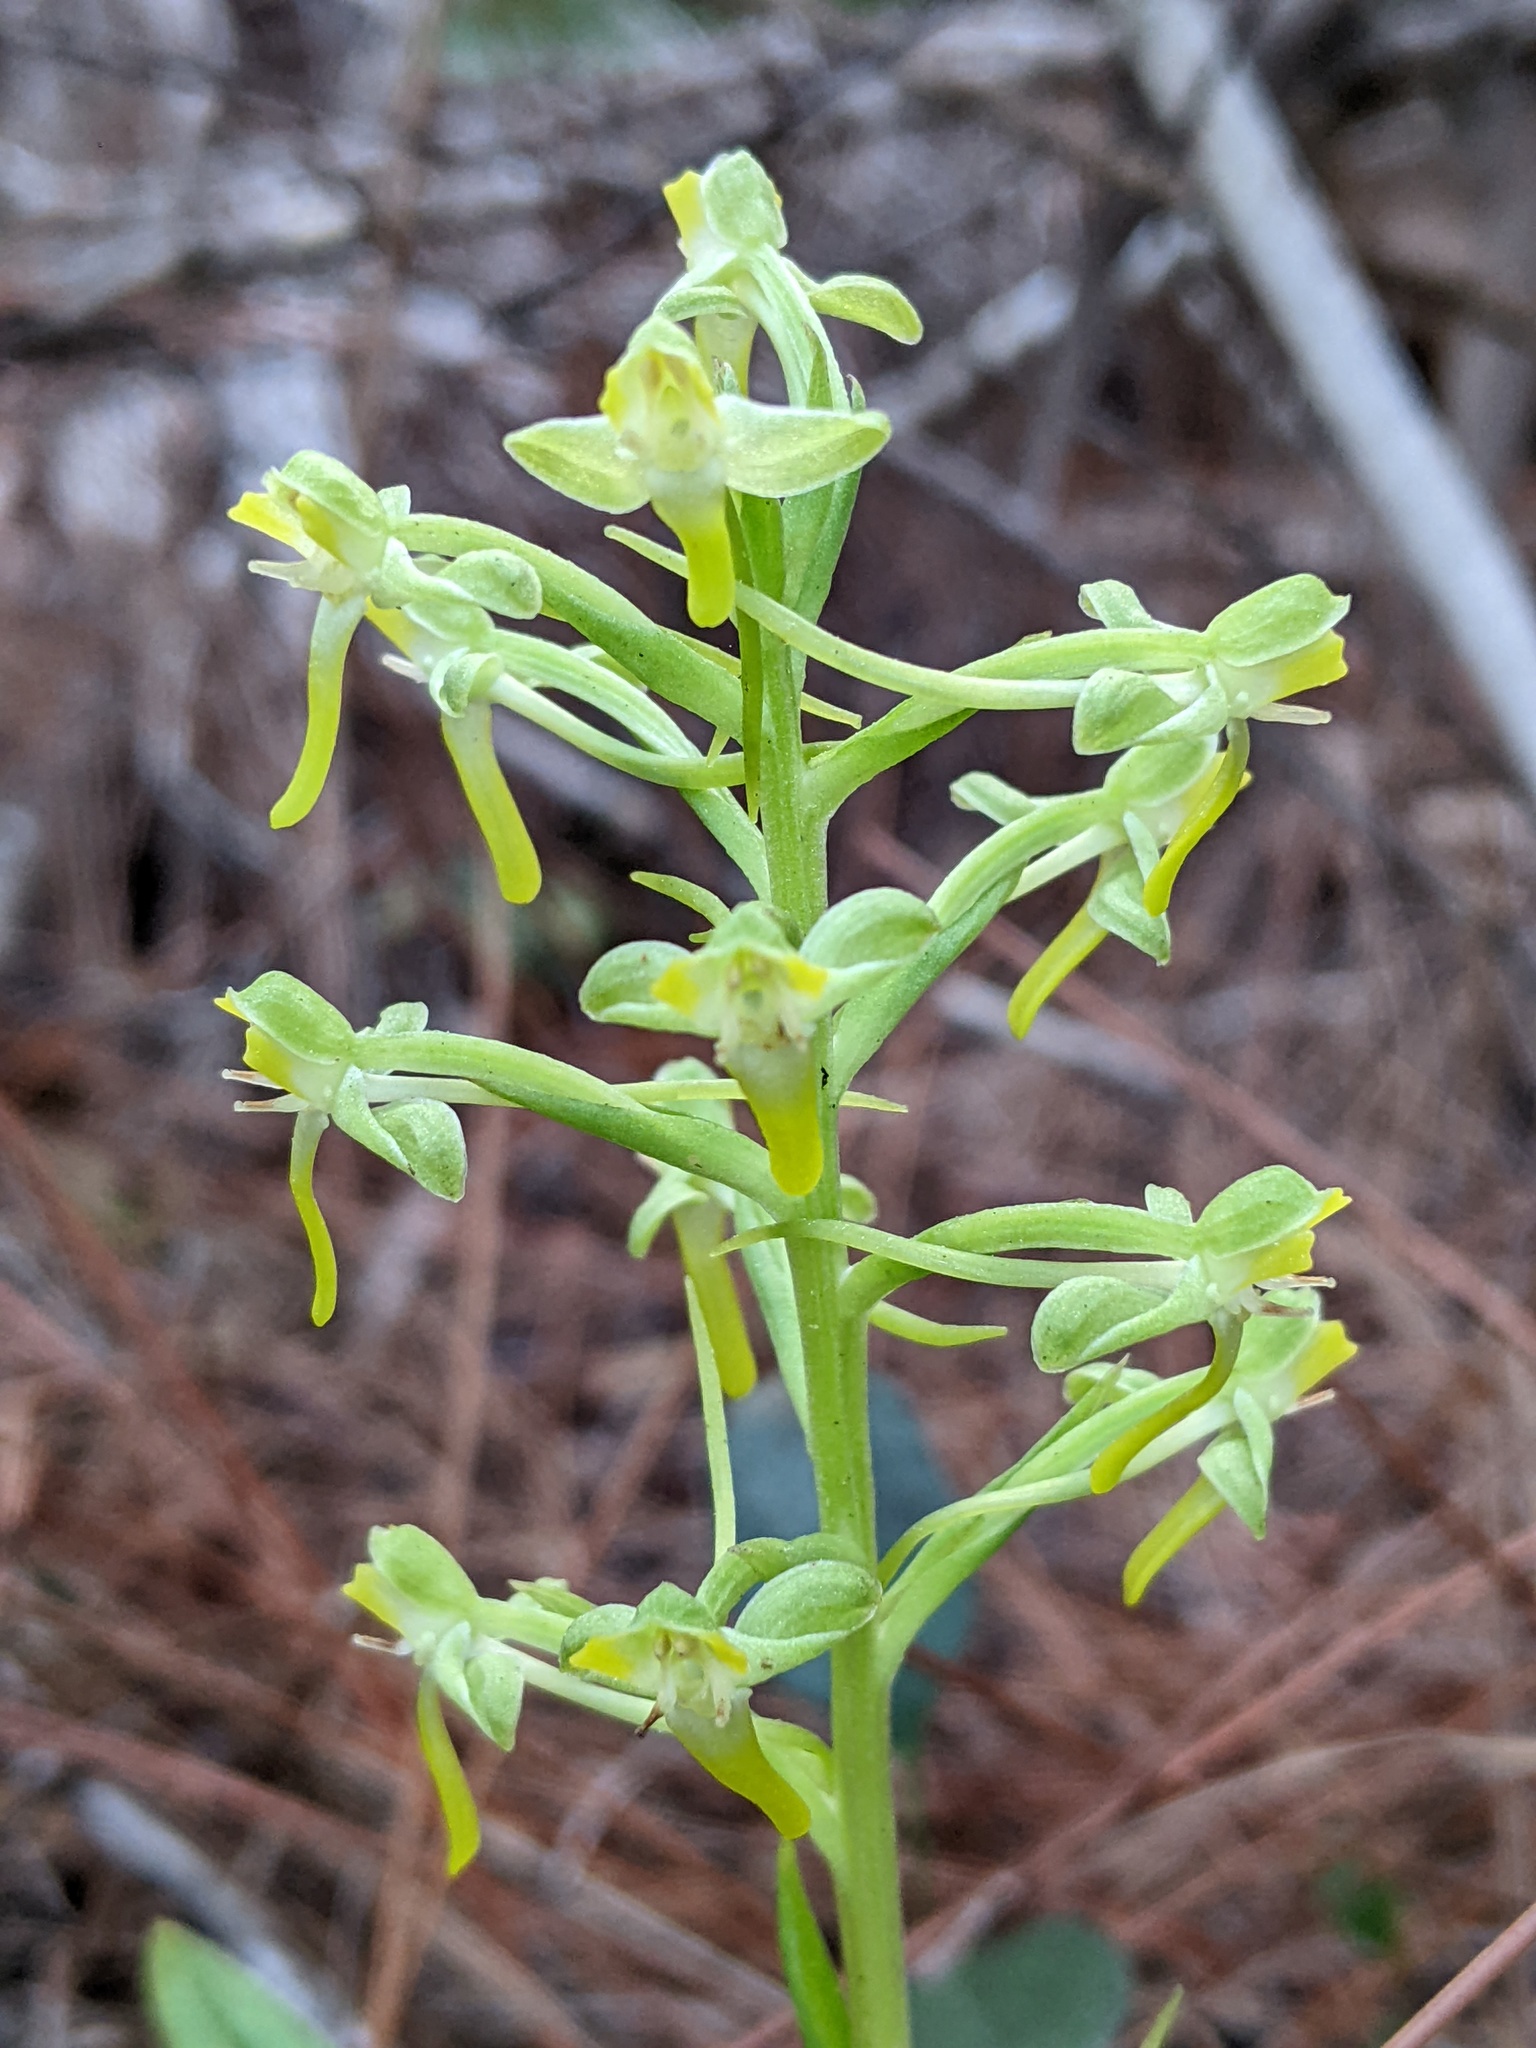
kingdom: Plantae
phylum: Tracheophyta
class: Liliopsida
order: Asparagales
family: Orchidaceae
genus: Habenaria
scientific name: Habenaria floribunda
